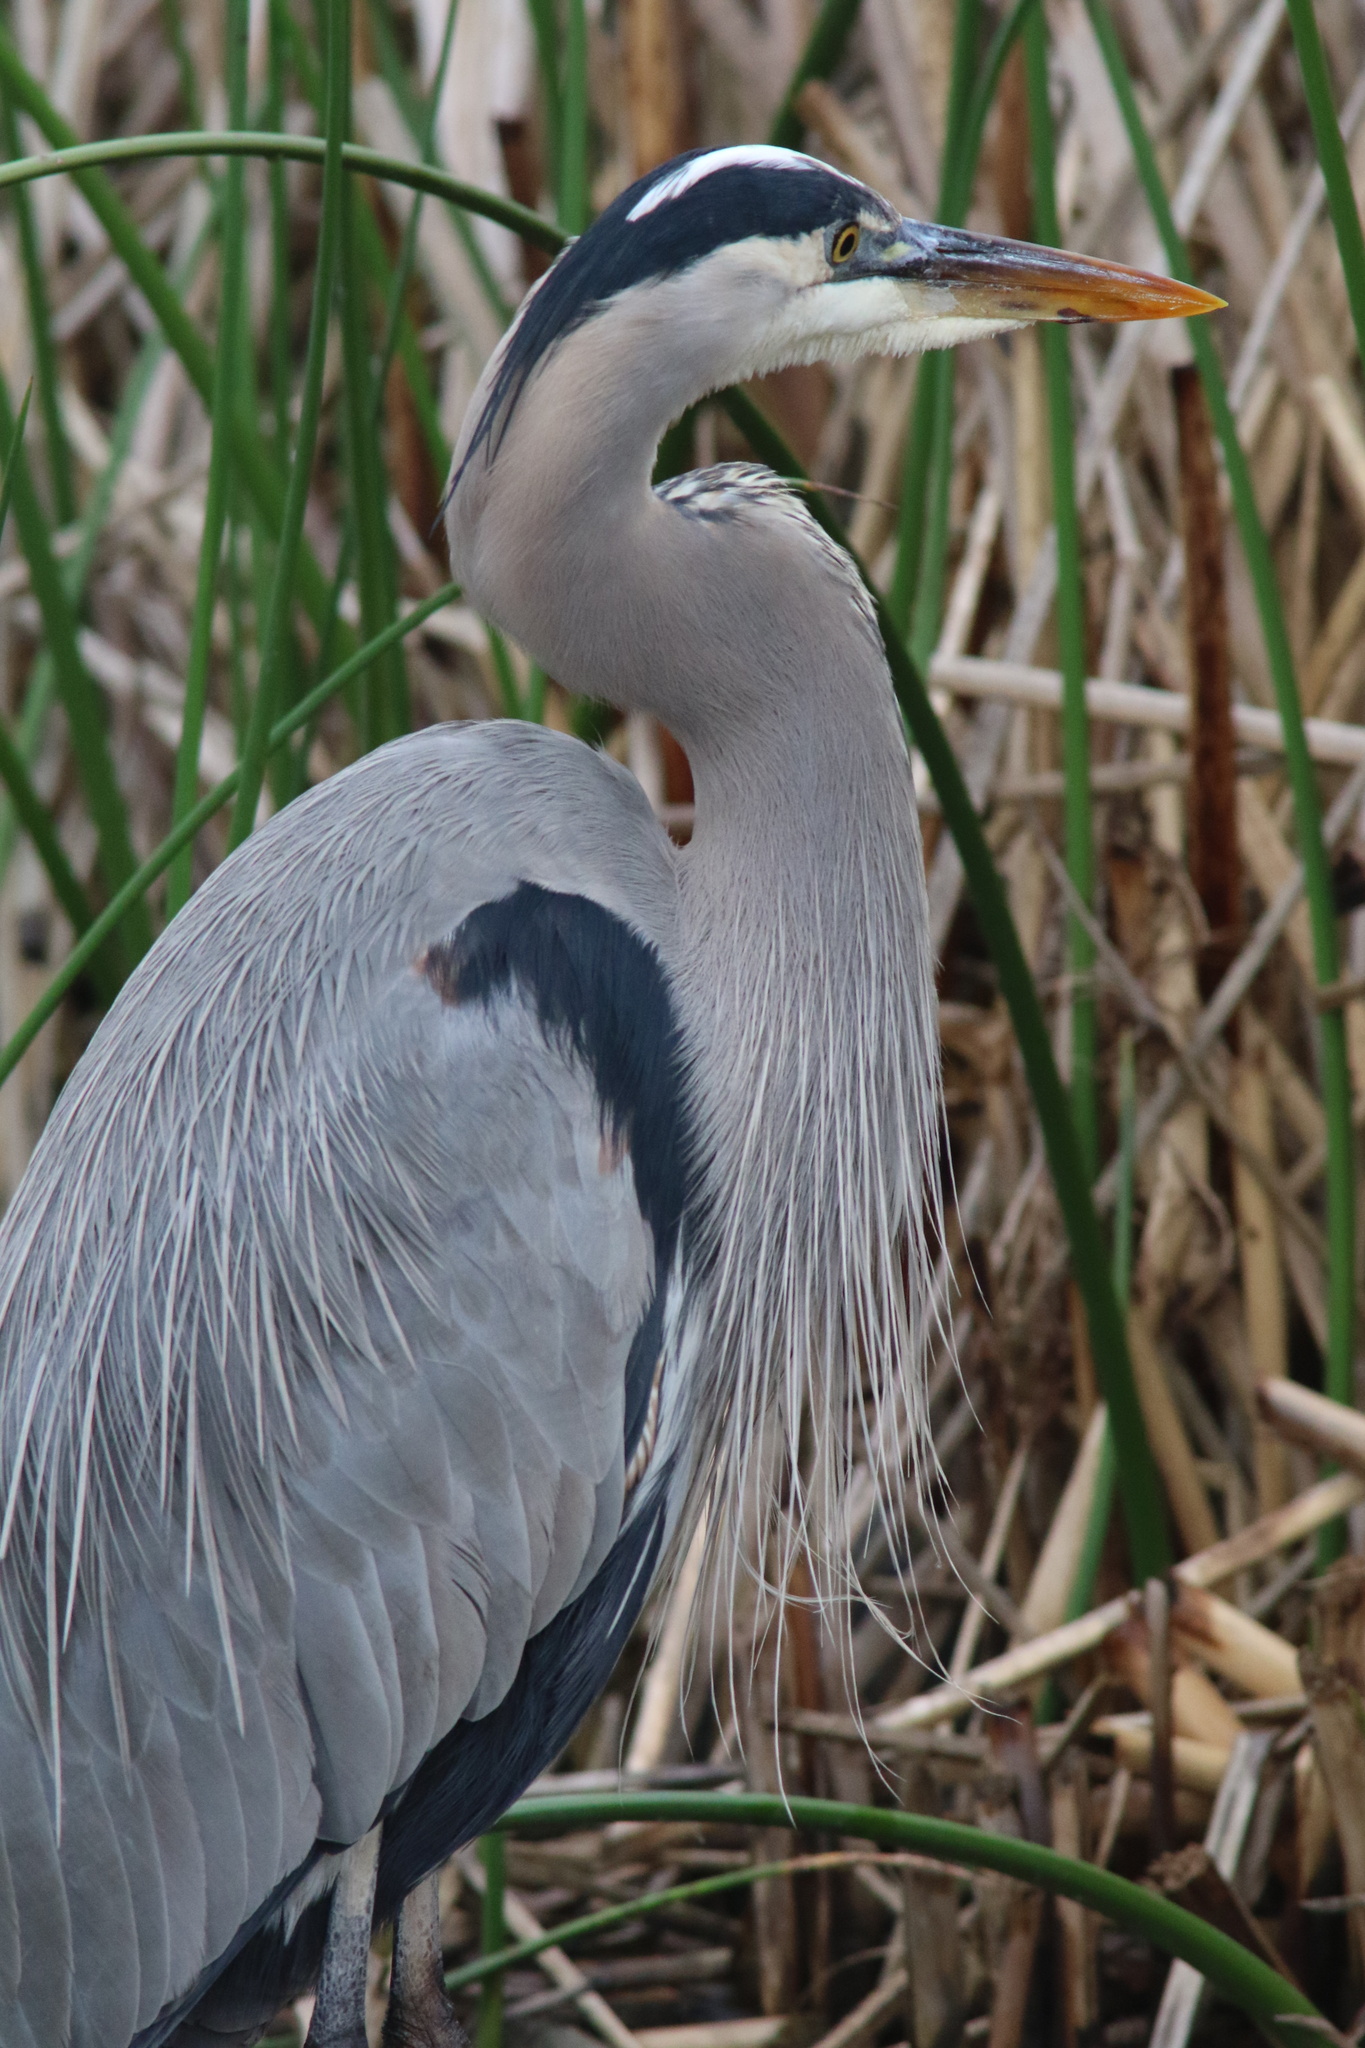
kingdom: Animalia
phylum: Chordata
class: Aves
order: Pelecaniformes
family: Ardeidae
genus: Ardea
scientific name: Ardea herodias
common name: Great blue heron
